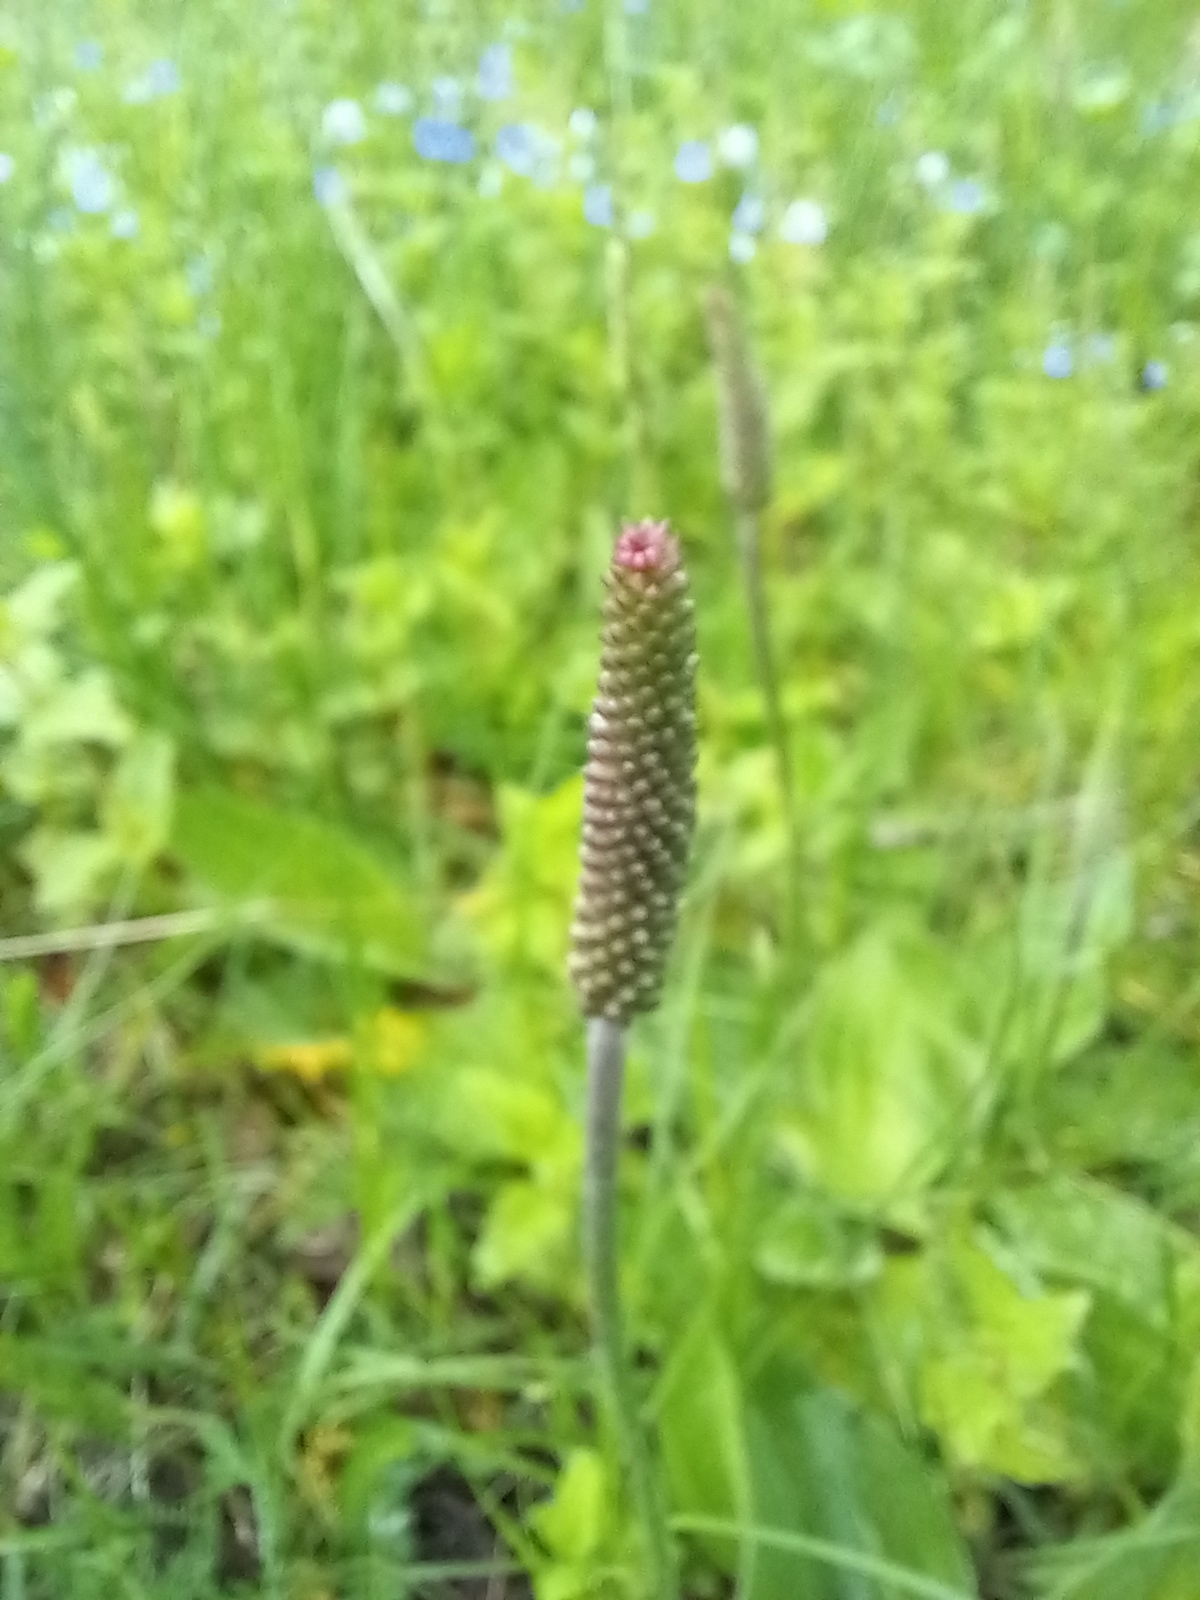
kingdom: Plantae
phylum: Tracheophyta
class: Magnoliopsida
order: Lamiales
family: Plantaginaceae
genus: Plantago
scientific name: Plantago media
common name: Hoary plantain
